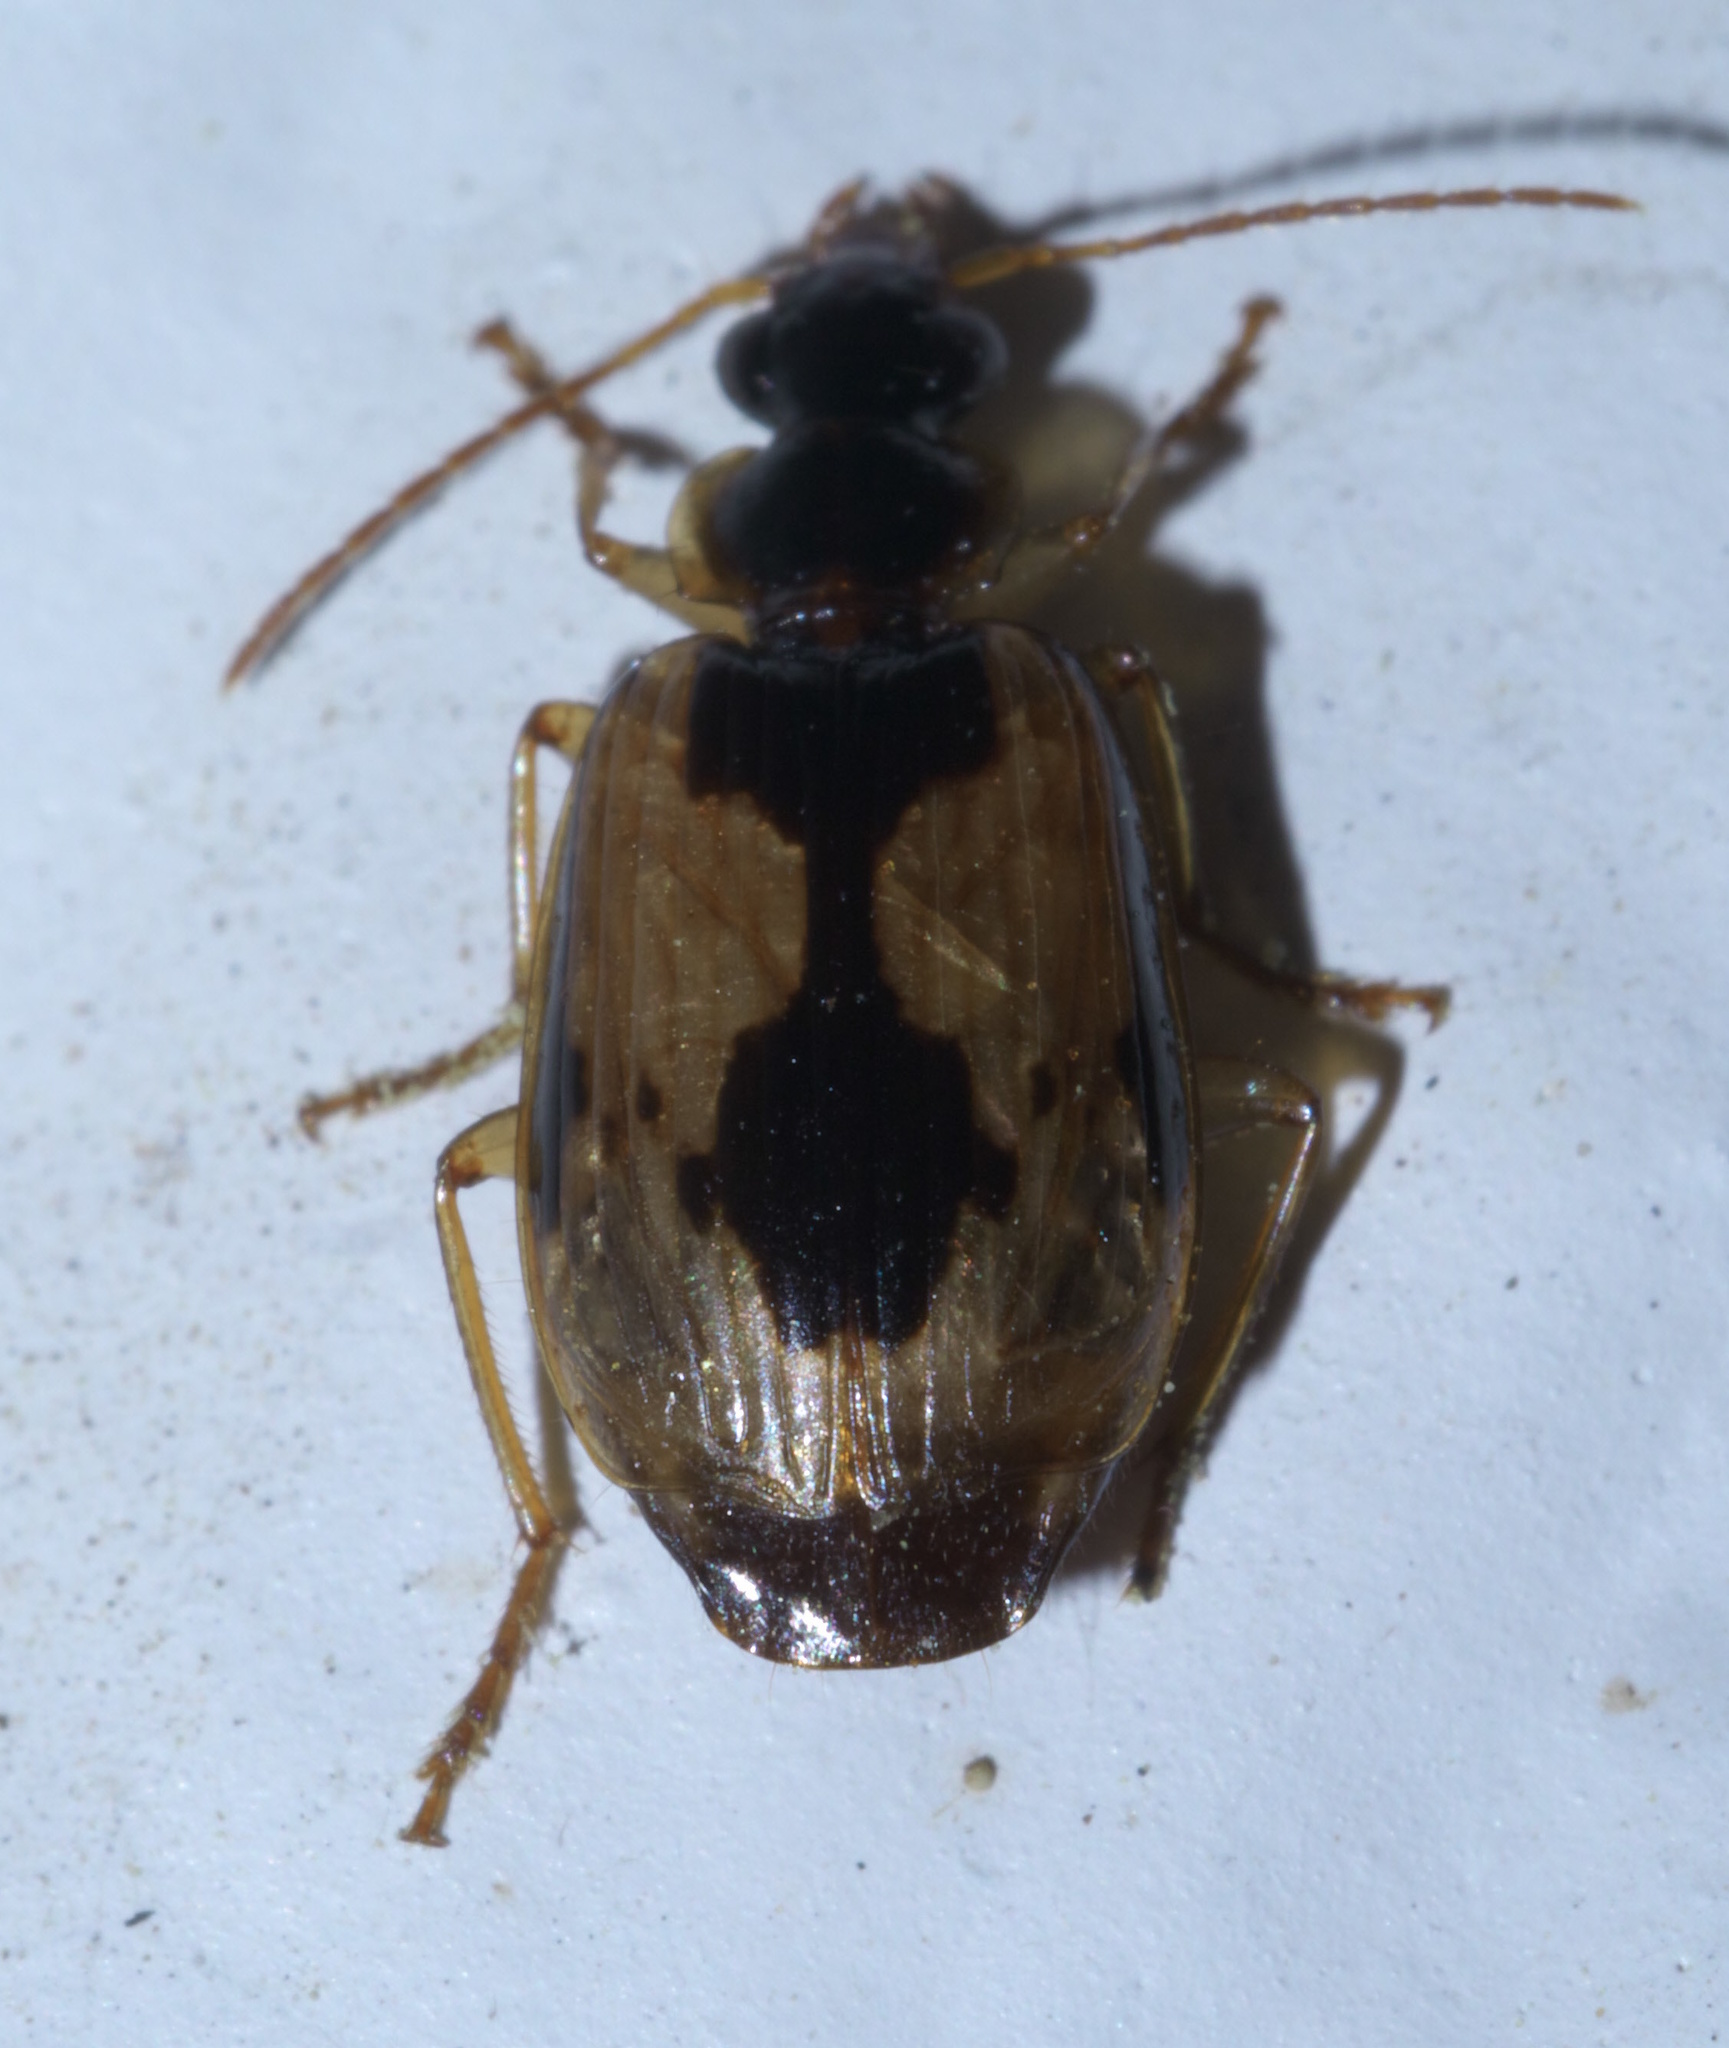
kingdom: Animalia
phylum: Arthropoda
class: Insecta
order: Coleoptera
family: Carabidae
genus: Lebia
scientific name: Lebia fuscata
